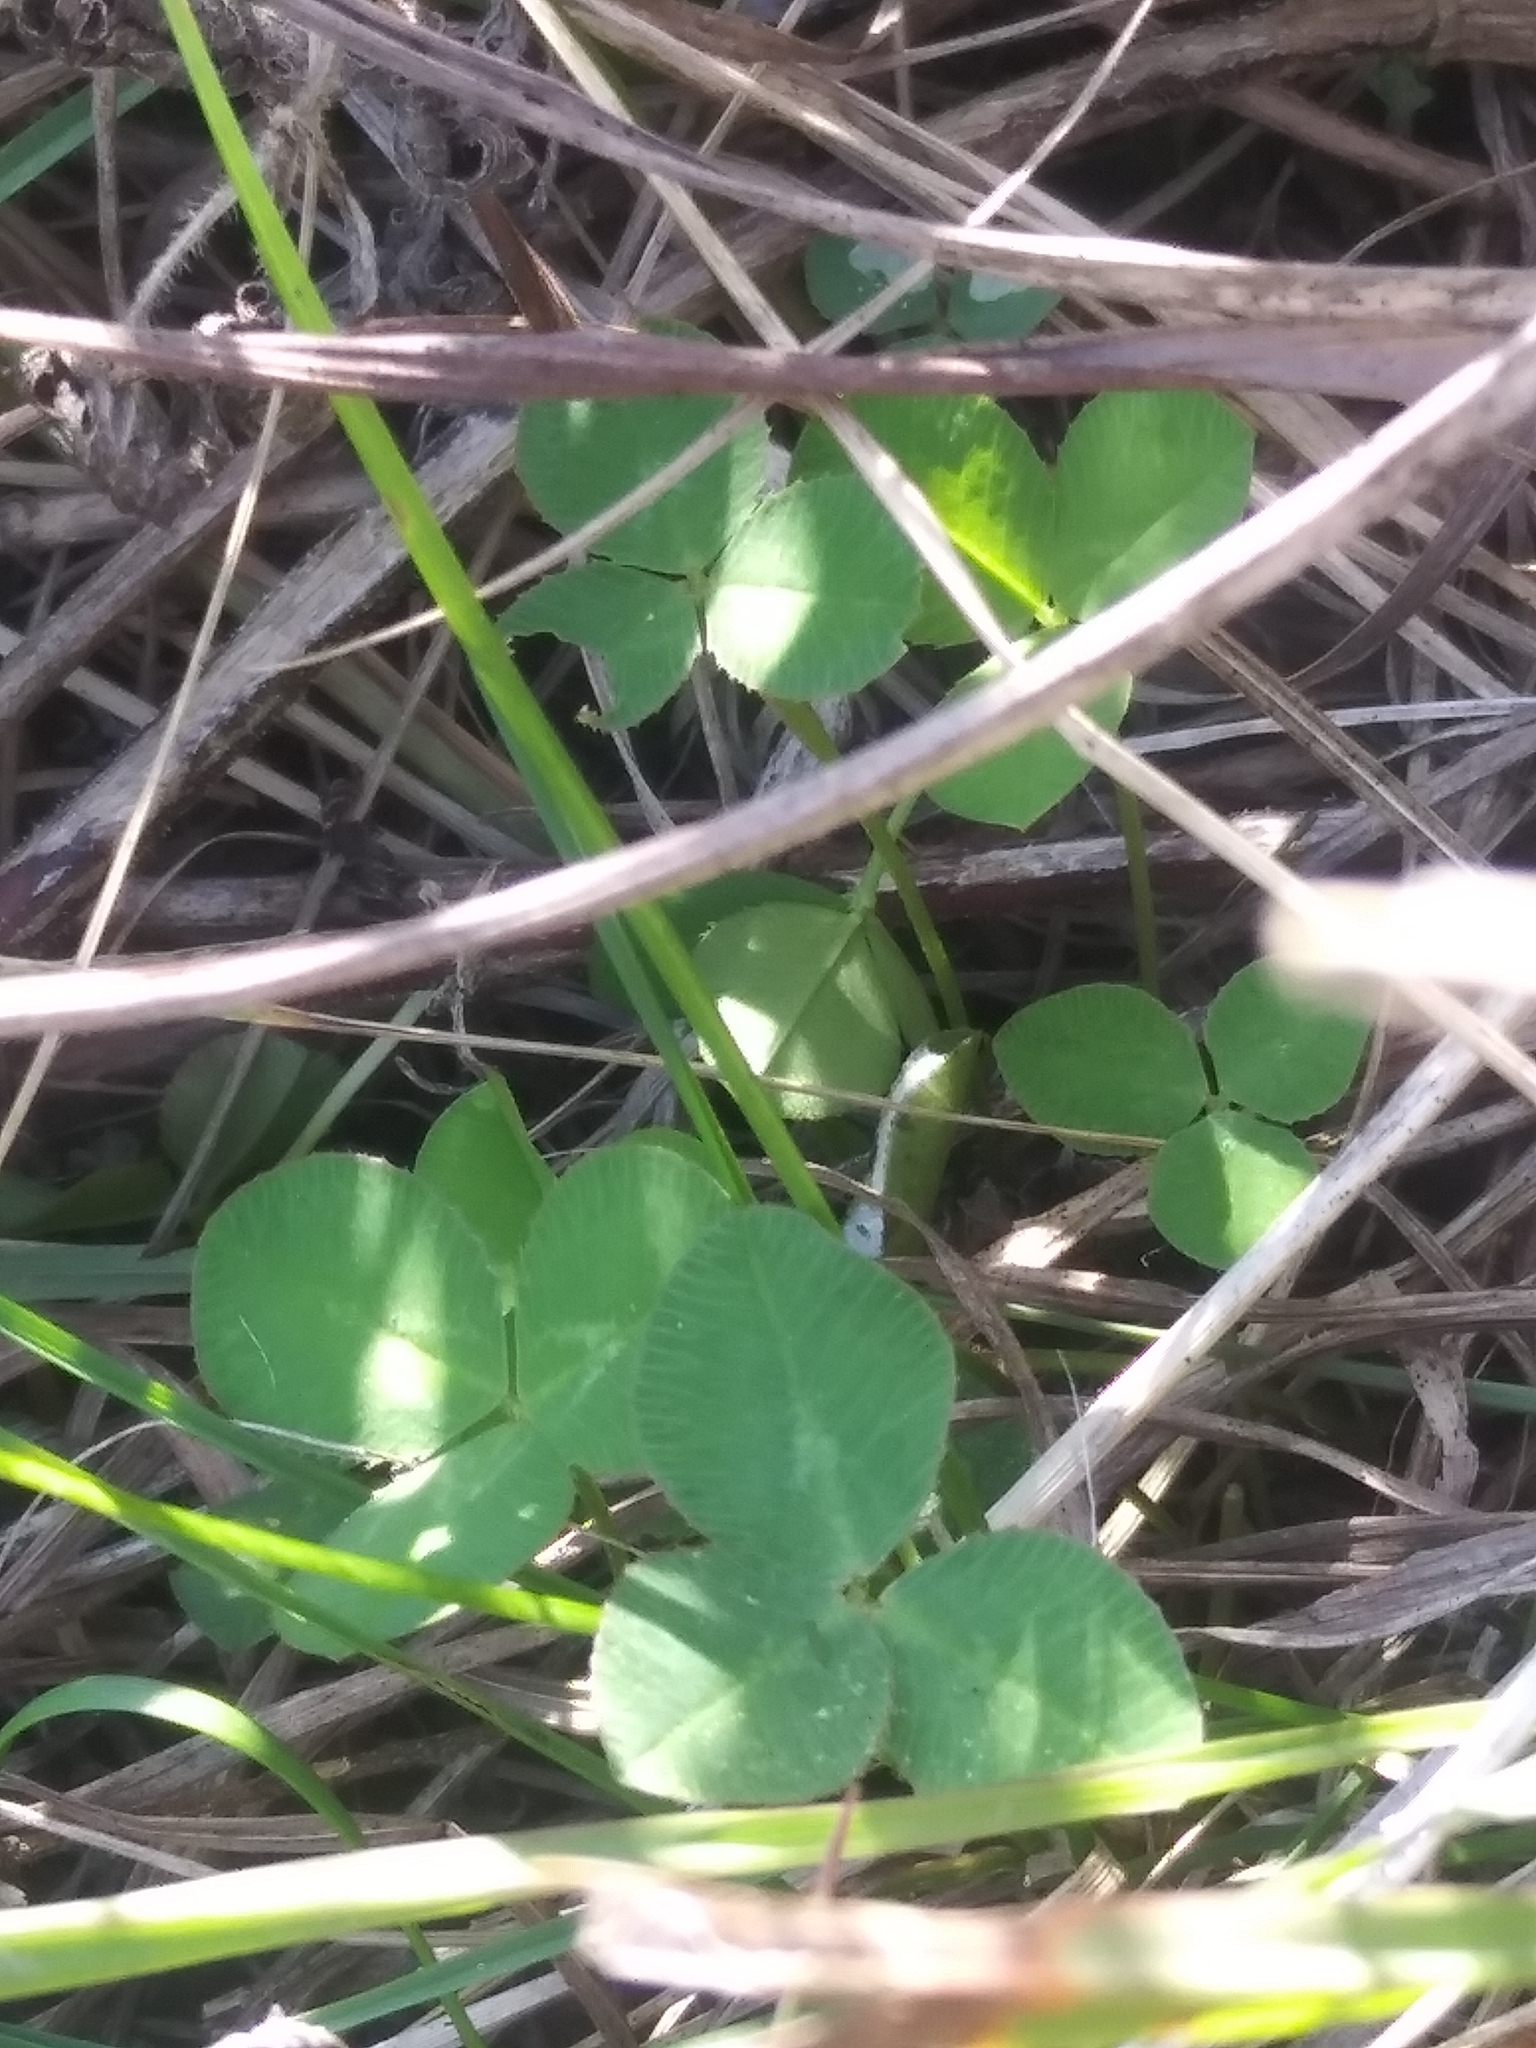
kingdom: Plantae
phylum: Tracheophyta
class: Magnoliopsida
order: Fabales
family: Fabaceae
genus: Trifolium
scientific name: Trifolium repens
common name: White clover
